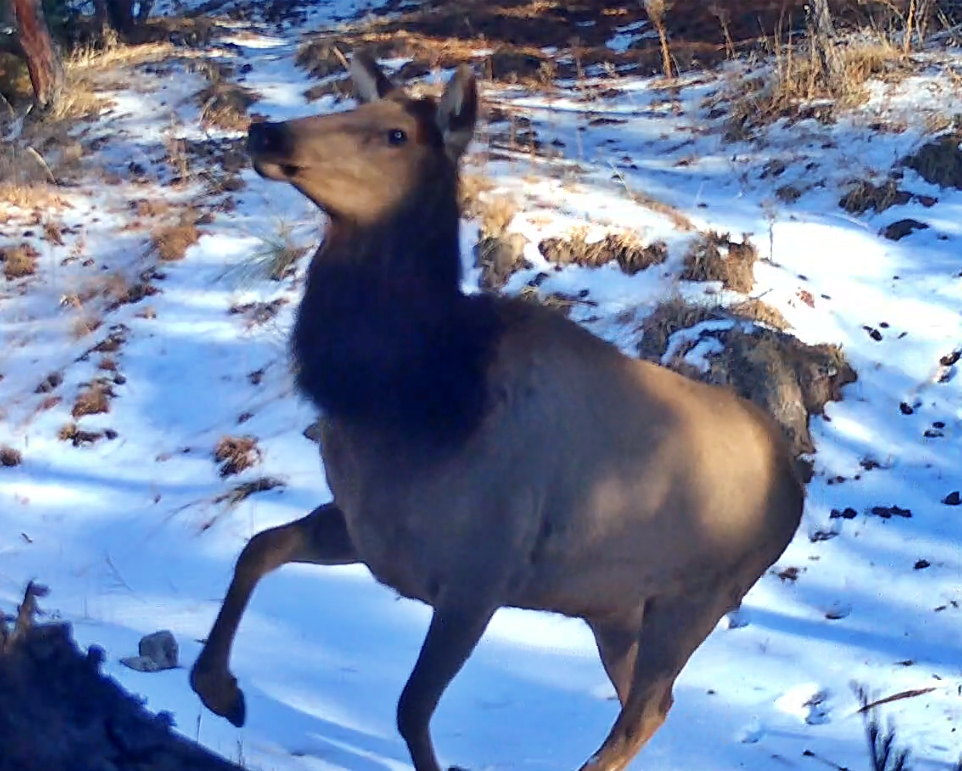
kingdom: Animalia
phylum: Chordata
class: Mammalia
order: Artiodactyla
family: Cervidae
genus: Cervus
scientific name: Cervus elaphus
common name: Red deer
